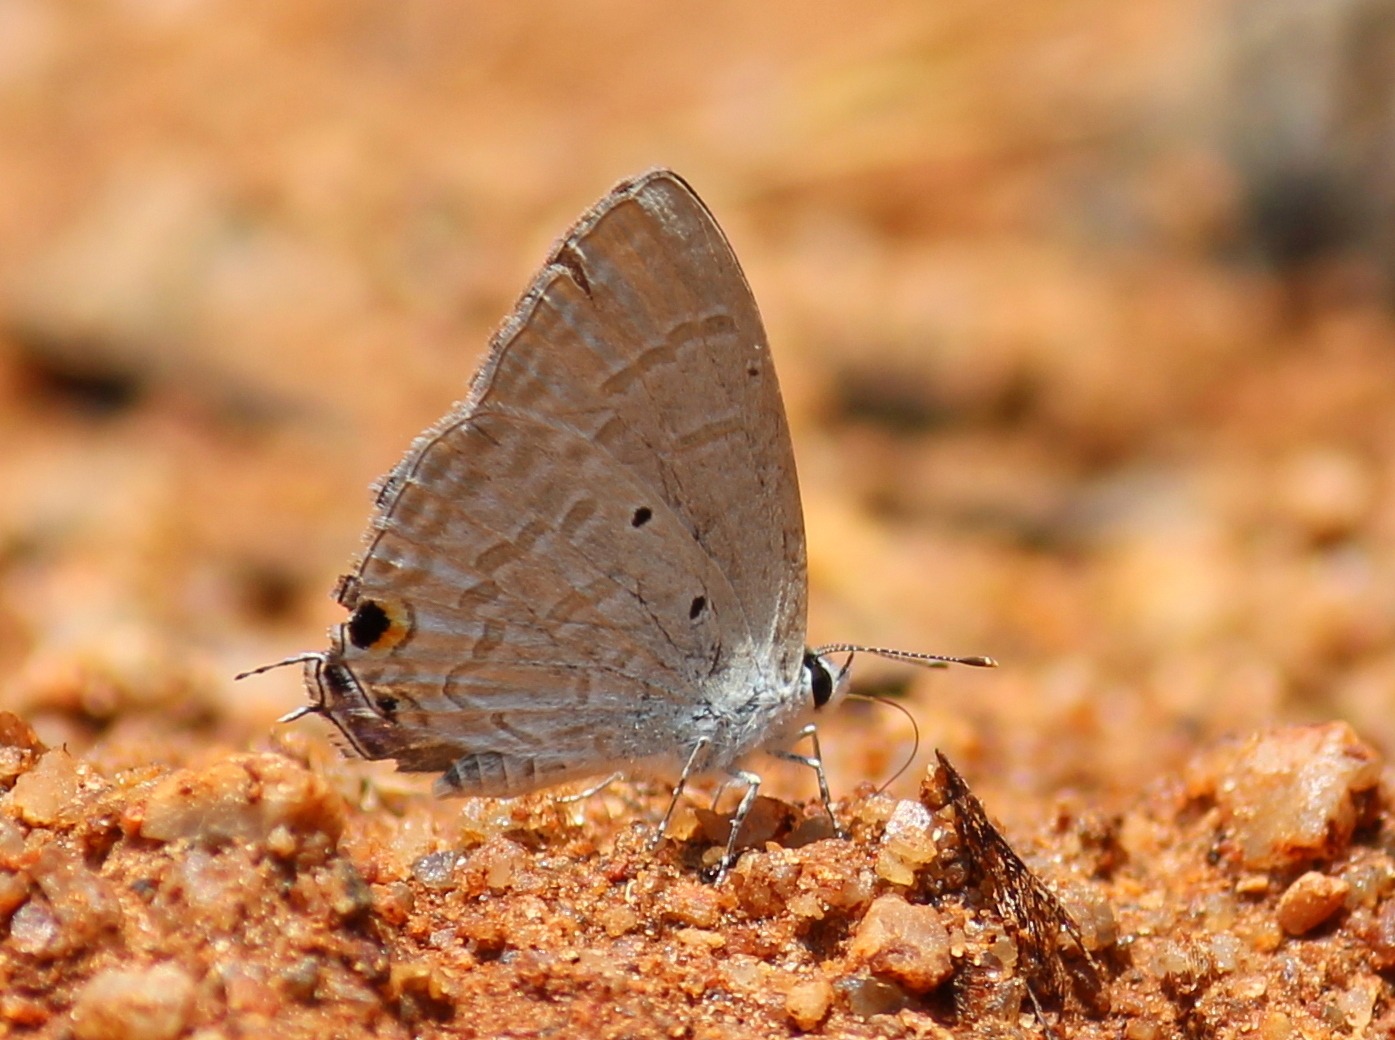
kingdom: Animalia
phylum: Arthropoda
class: Insecta
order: Lepidoptera
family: Lycaenidae
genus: Catochrysops
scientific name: Catochrysops strabo
